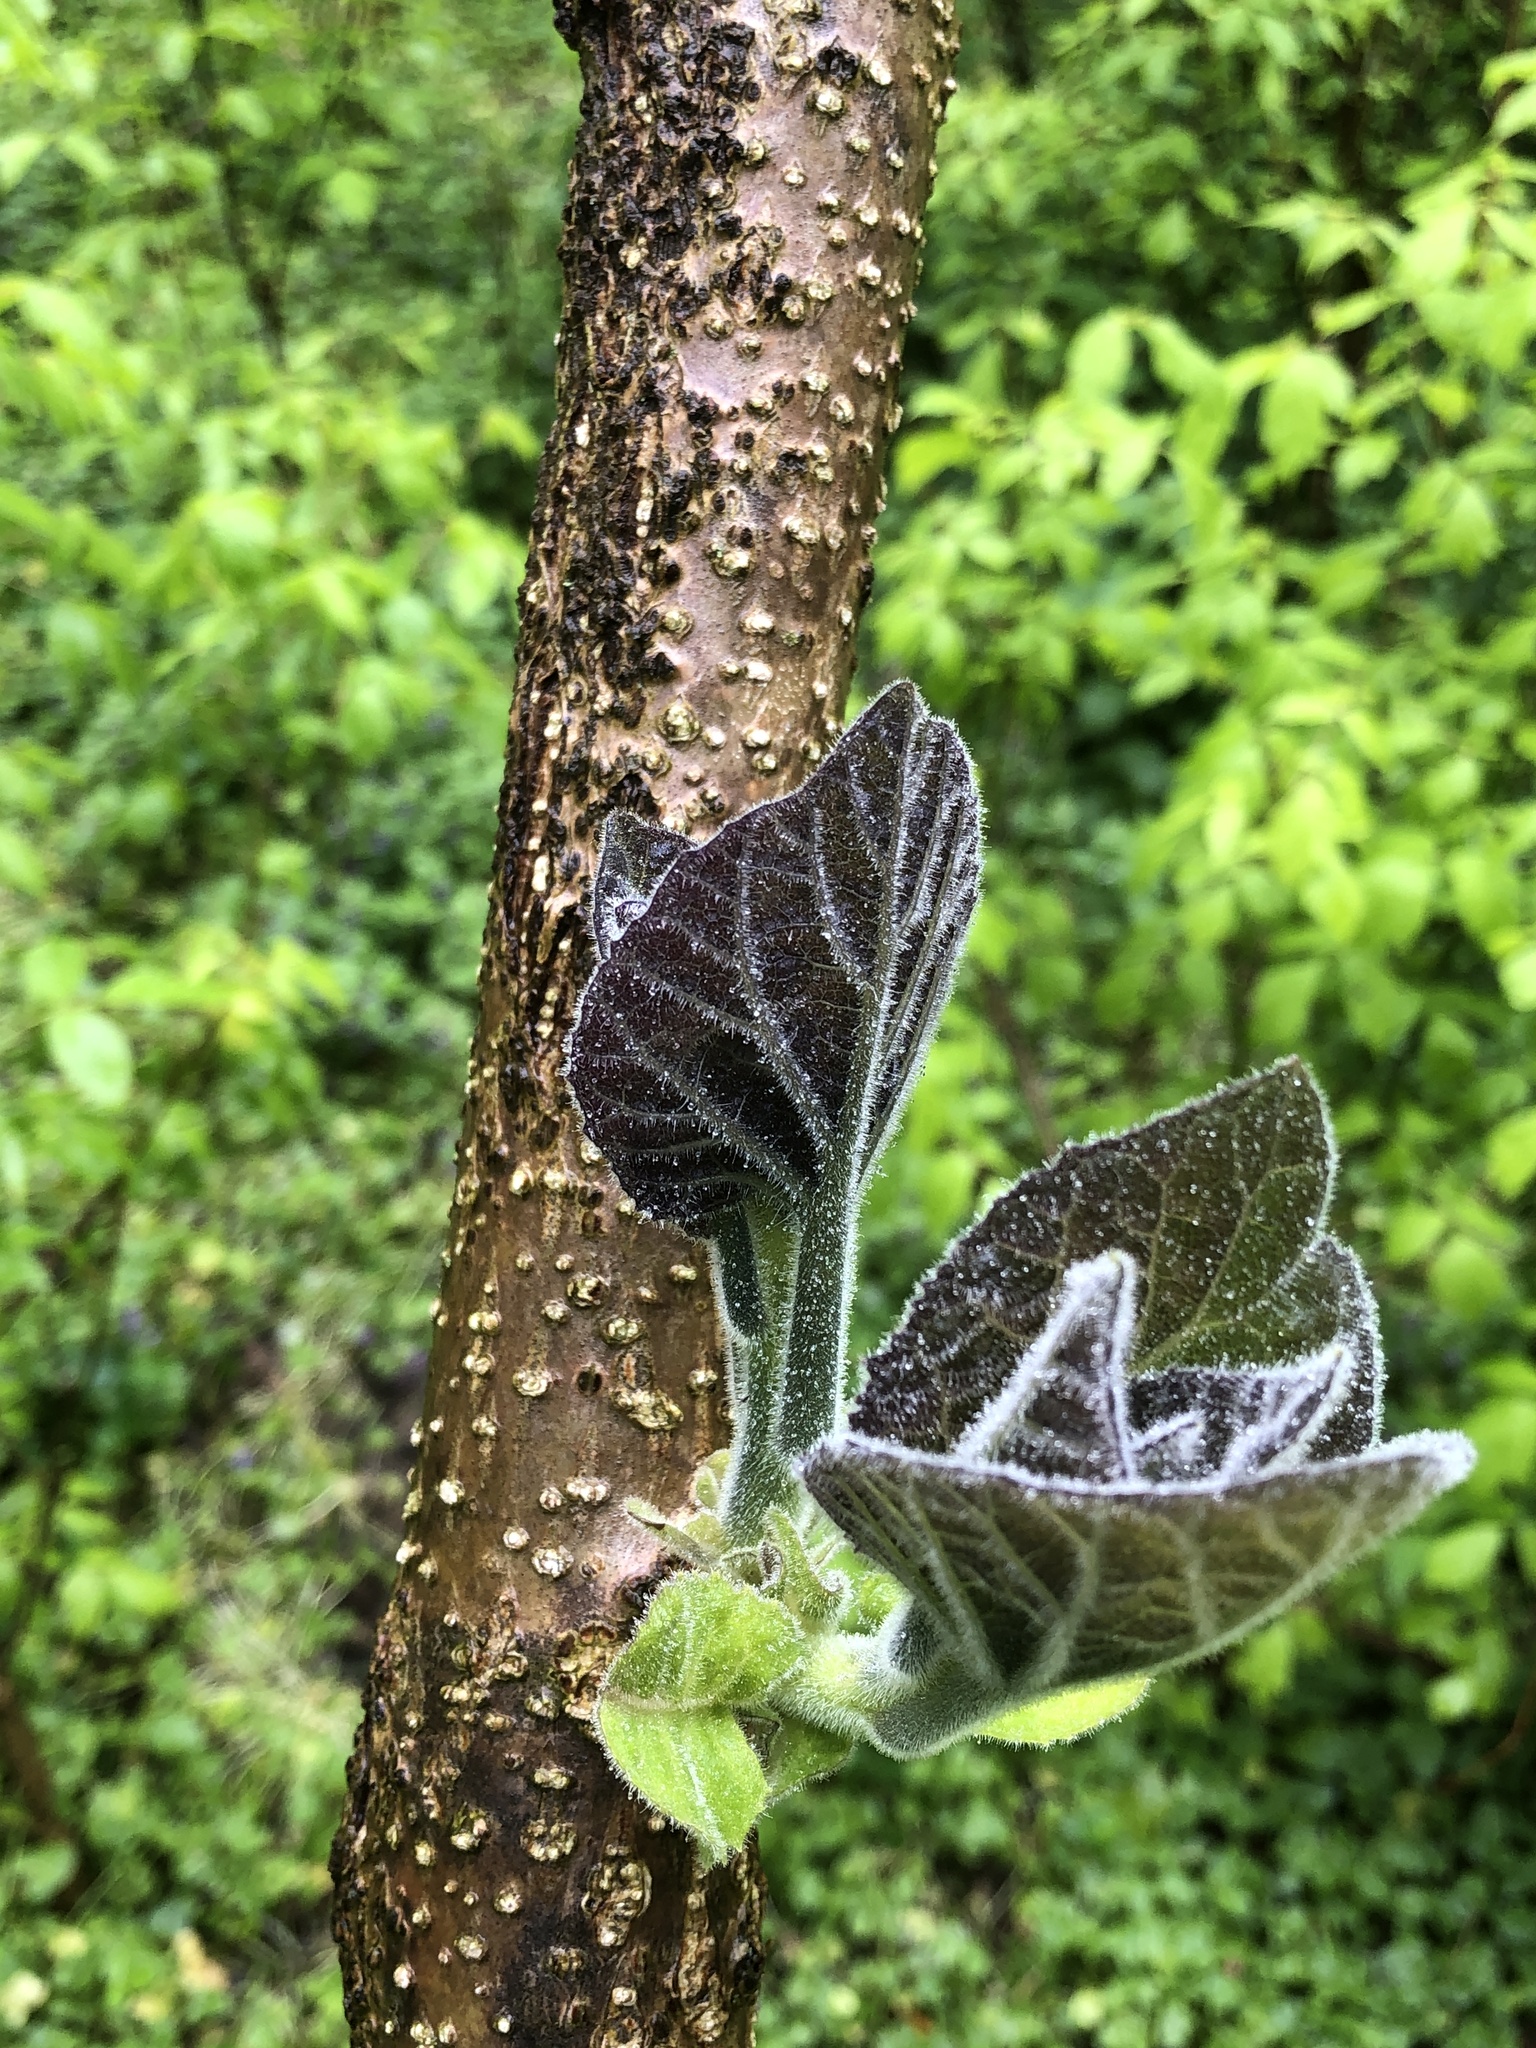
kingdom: Plantae
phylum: Tracheophyta
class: Magnoliopsida
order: Lamiales
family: Paulowniaceae
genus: Paulownia
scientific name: Paulownia tomentosa
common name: Foxglove-tree
